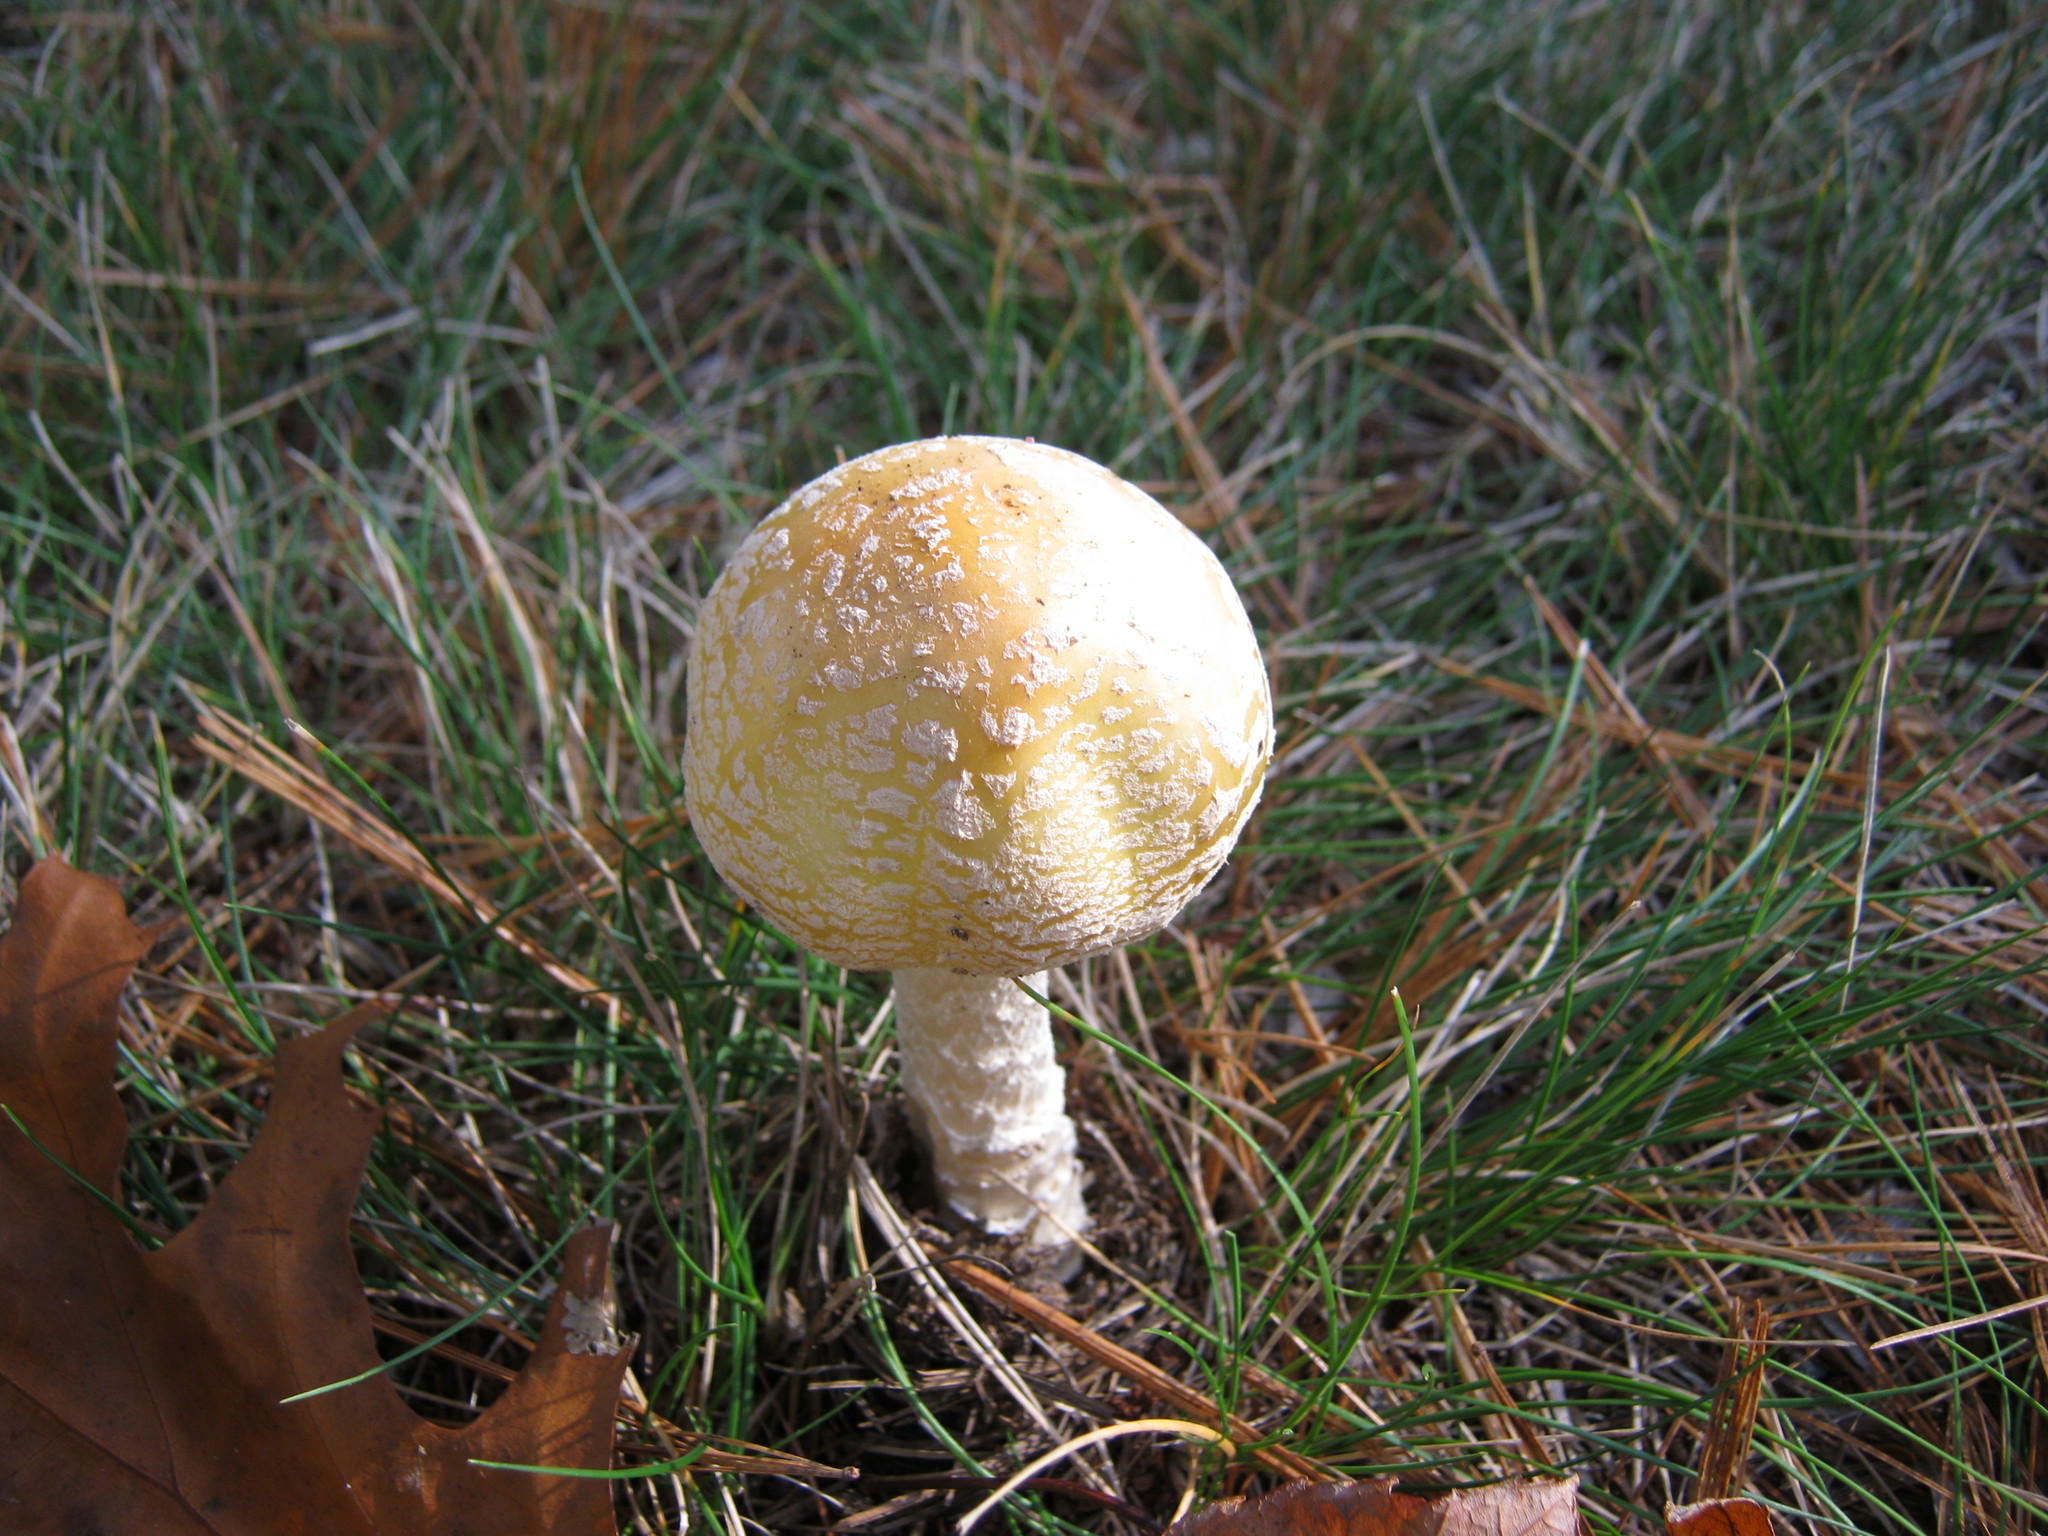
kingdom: Fungi
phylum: Basidiomycota
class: Agaricomycetes
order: Agaricales
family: Amanitaceae
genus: Amanita
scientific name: Amanita muscaria
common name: Fly agaric
